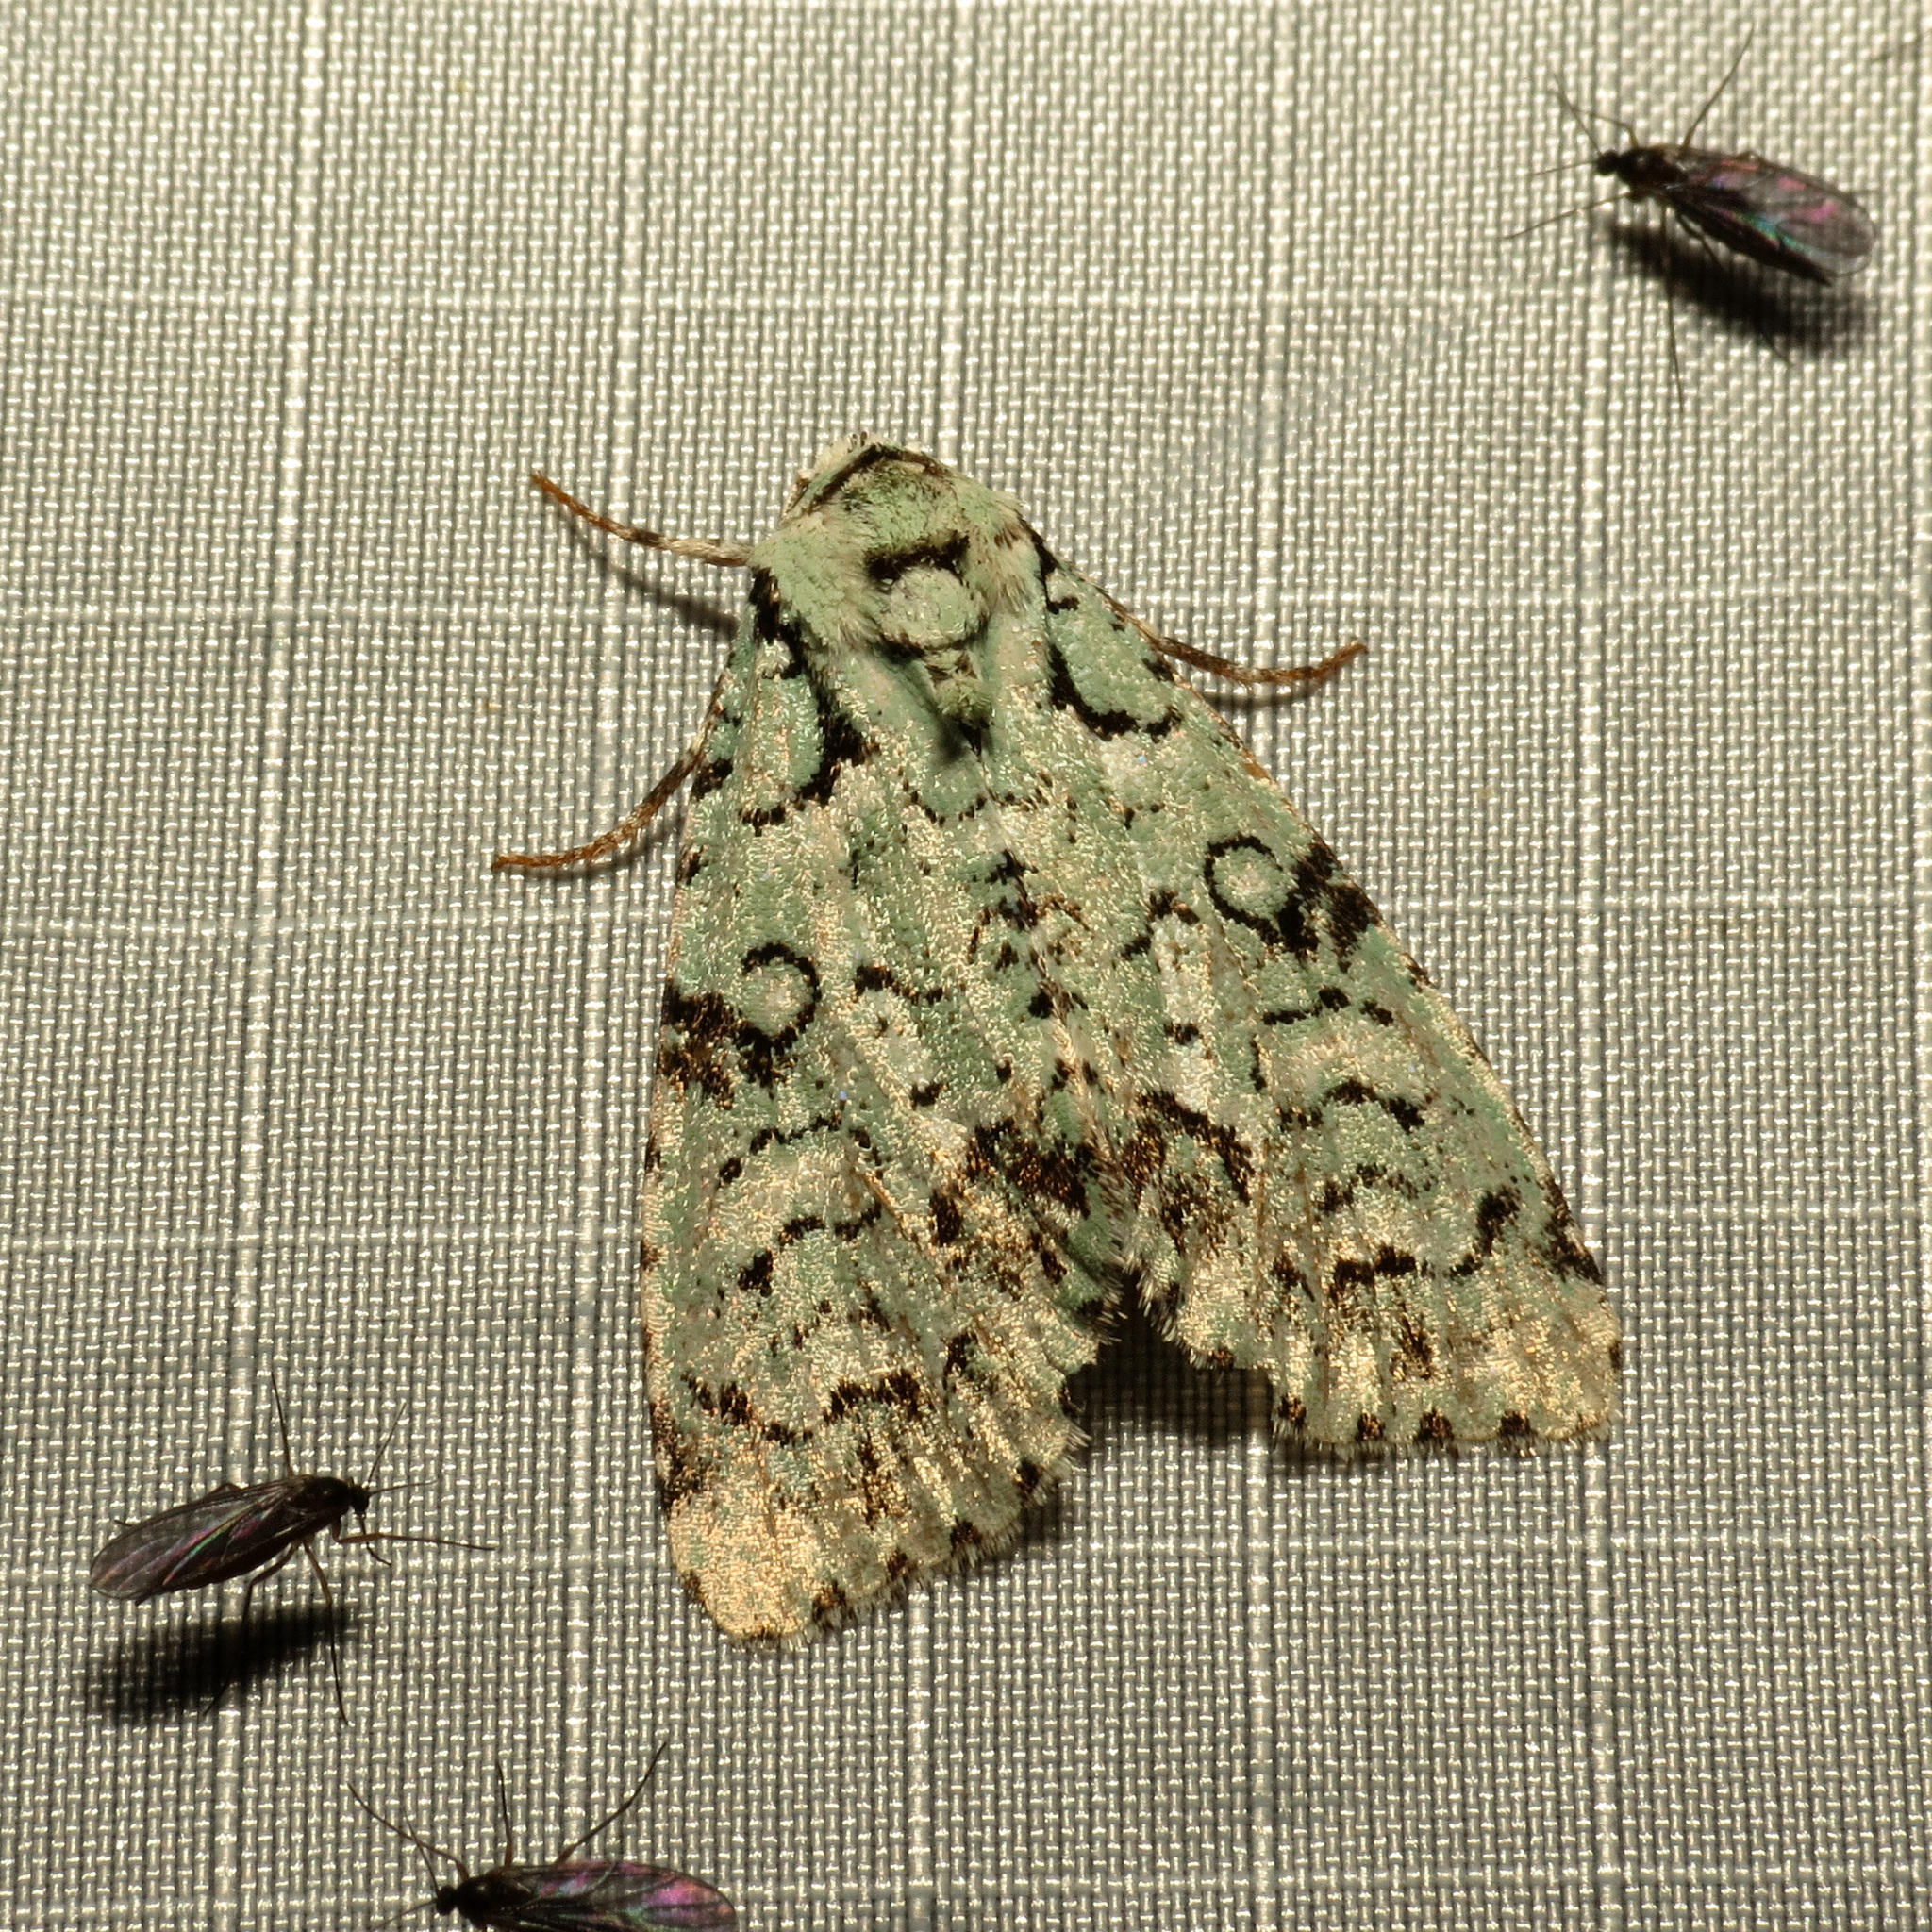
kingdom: Animalia
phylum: Arthropoda
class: Insecta
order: Lepidoptera
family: Noctuidae
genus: Chloronycta
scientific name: Chloronycta tybo
